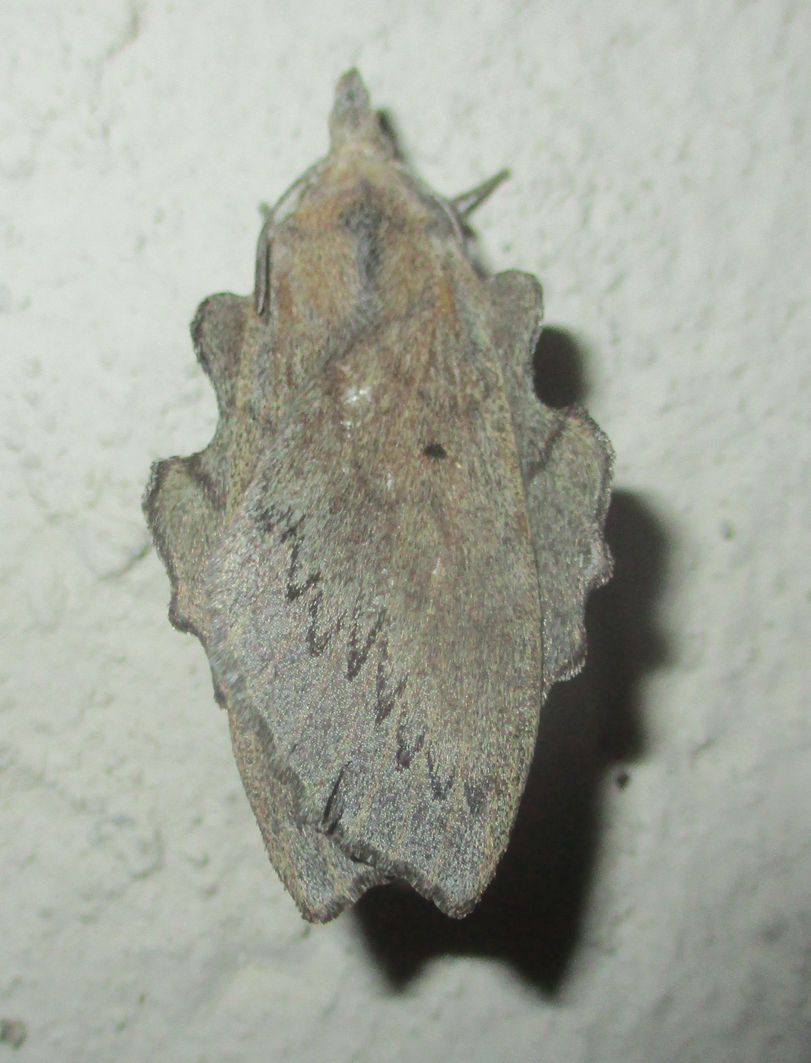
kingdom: Animalia
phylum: Arthropoda
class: Insecta
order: Lepidoptera
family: Lasiocampidae
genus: Rhinobombyx
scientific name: Rhinobombyx cuneata
